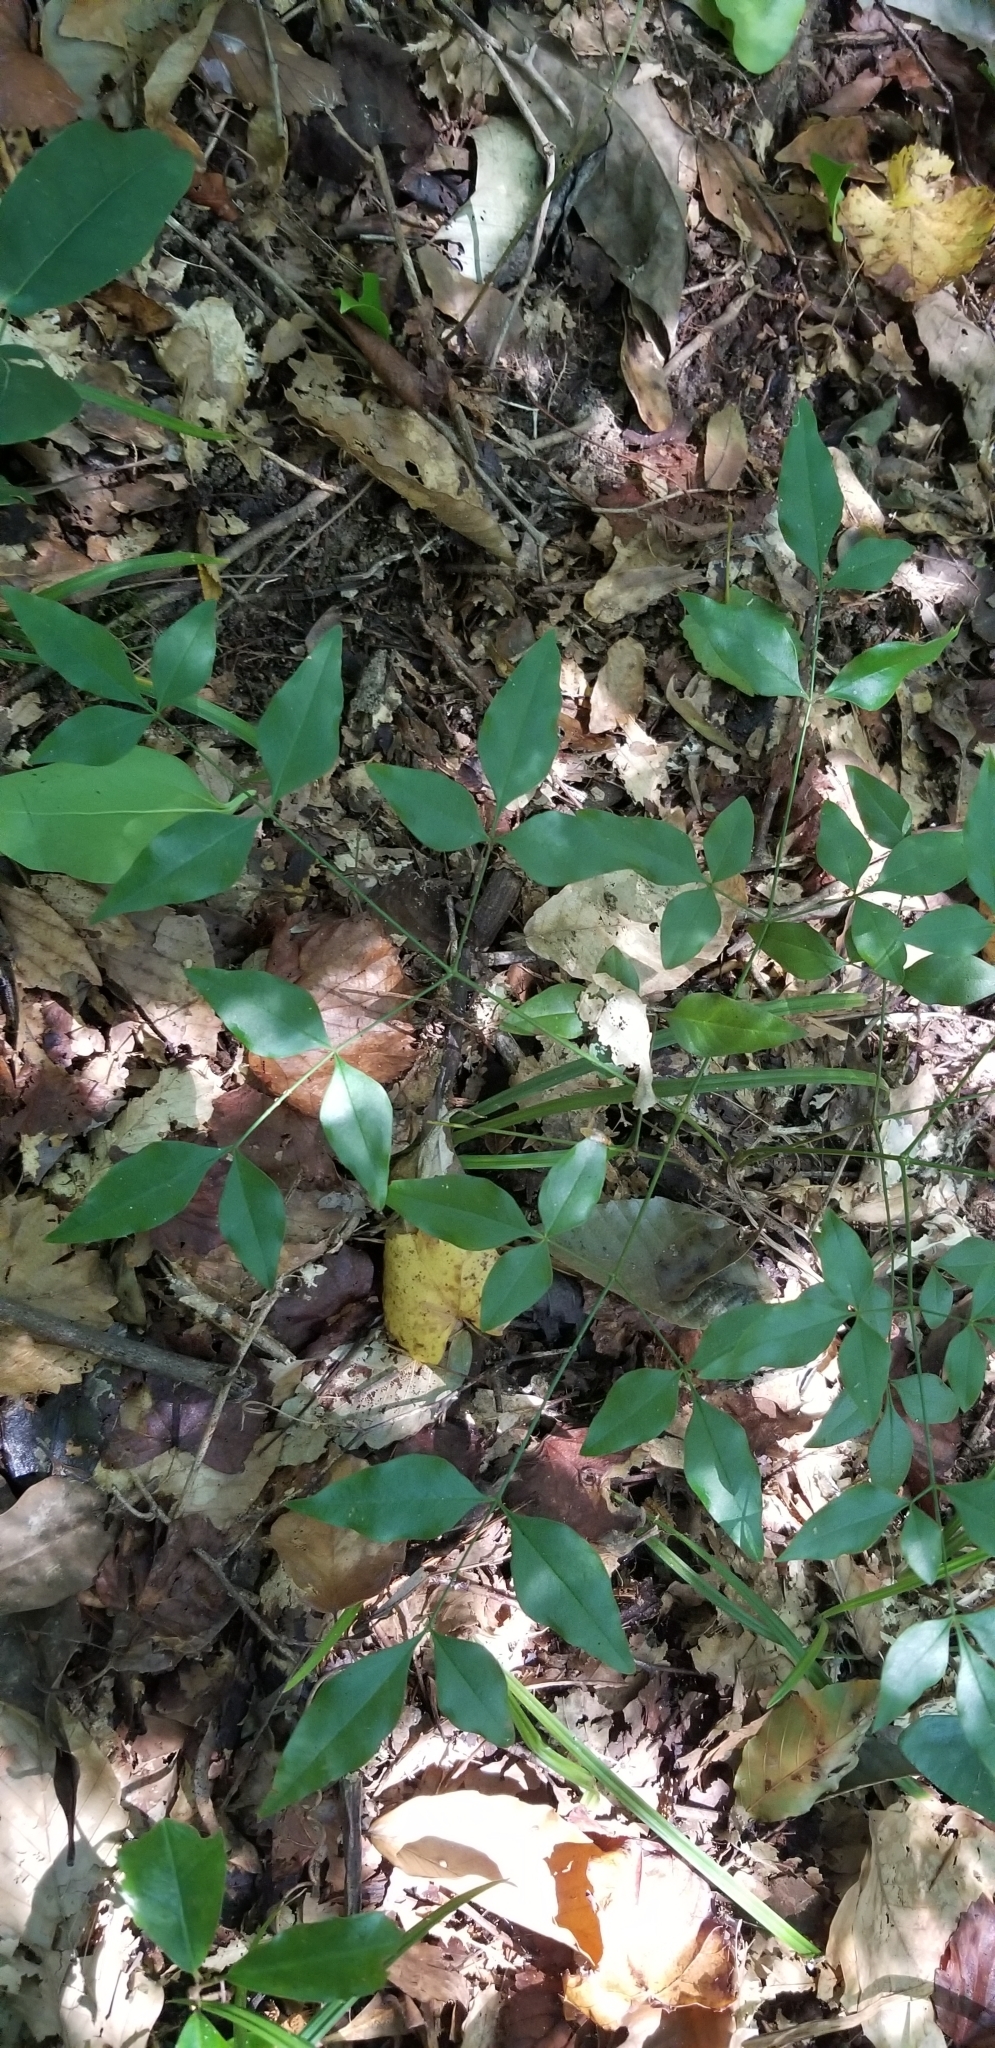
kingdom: Plantae
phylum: Tracheophyta
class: Magnoliopsida
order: Ranunculales
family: Berberidaceae
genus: Nandina
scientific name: Nandina domestica
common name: Sacred bamboo
